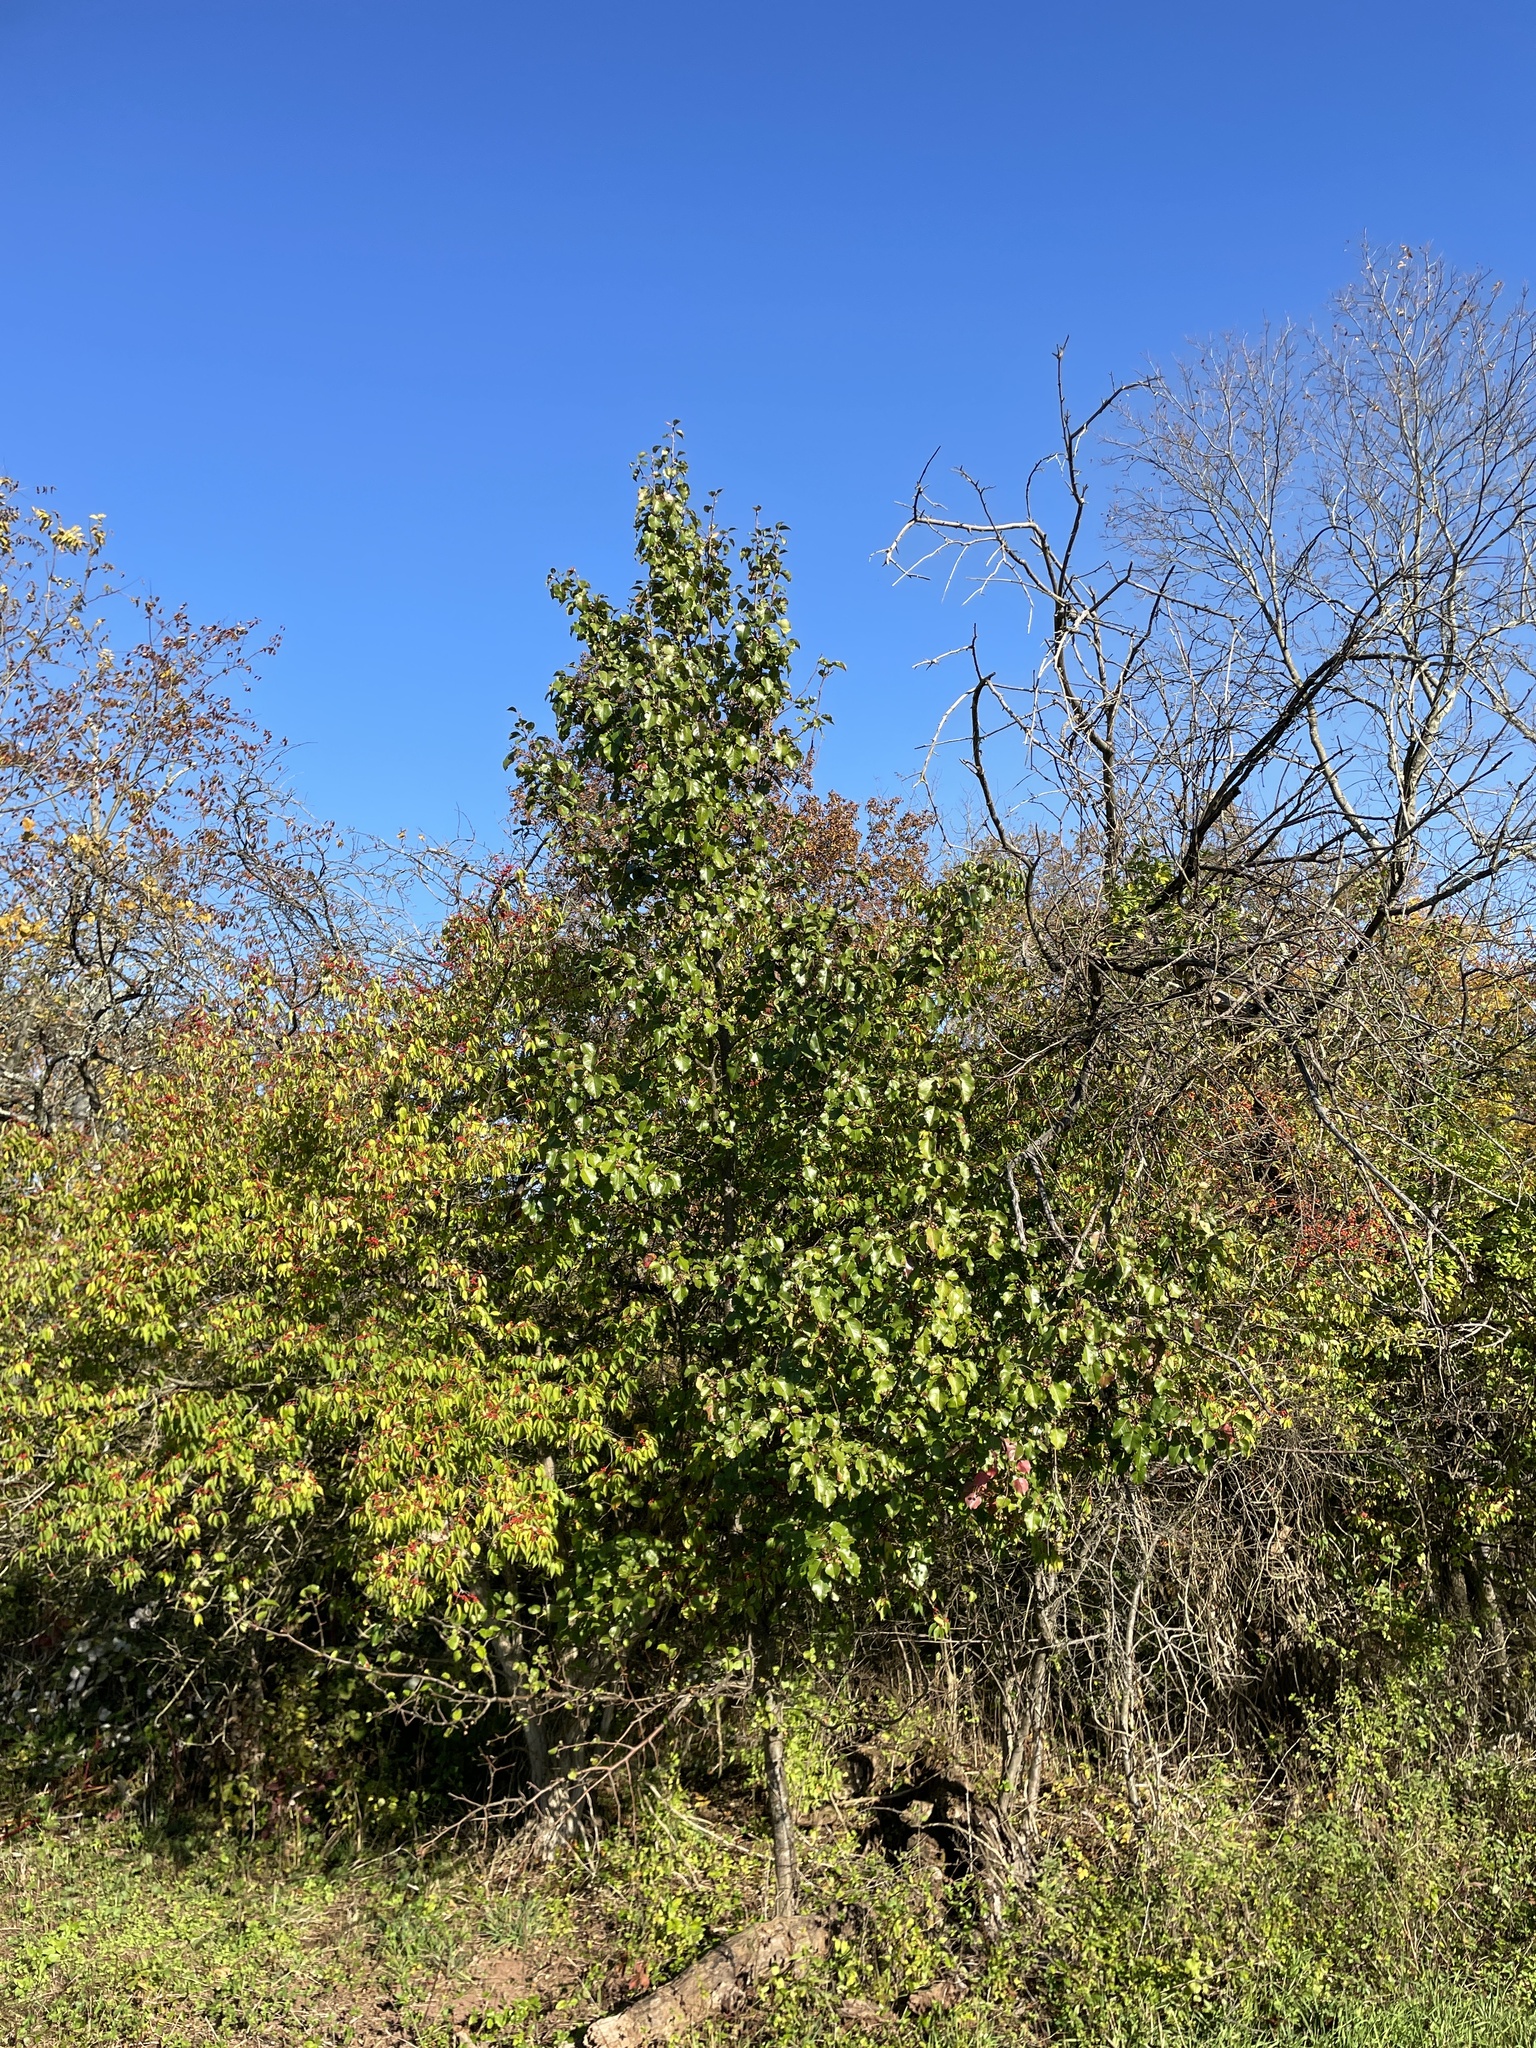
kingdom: Plantae
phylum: Tracheophyta
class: Magnoliopsida
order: Rosales
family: Rosaceae
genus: Pyrus
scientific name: Pyrus calleryana
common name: Callery pear
